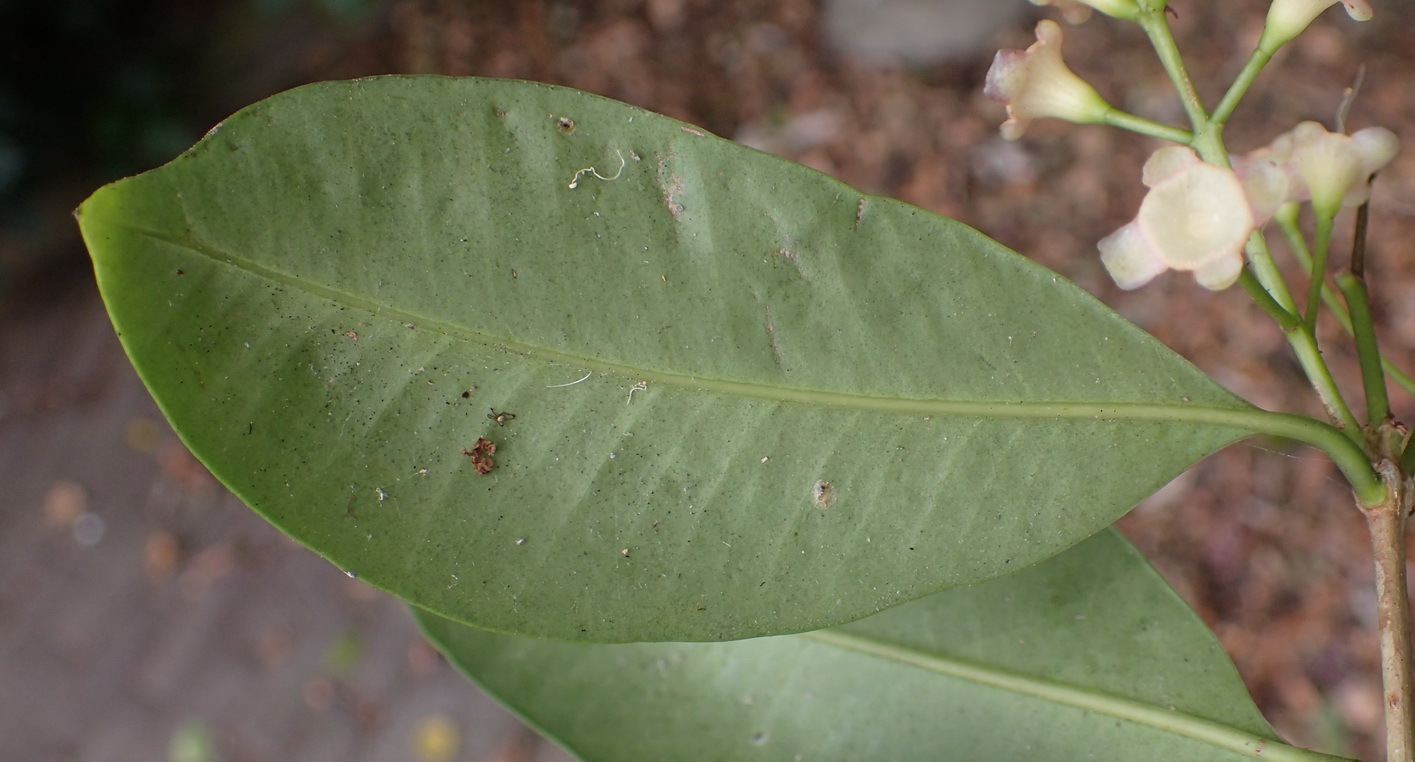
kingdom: Plantae
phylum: Tracheophyta
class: Magnoliopsida
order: Myrtales
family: Myrtaceae
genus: Syzygium
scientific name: Syzygium australe
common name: Australian brush-cherry
